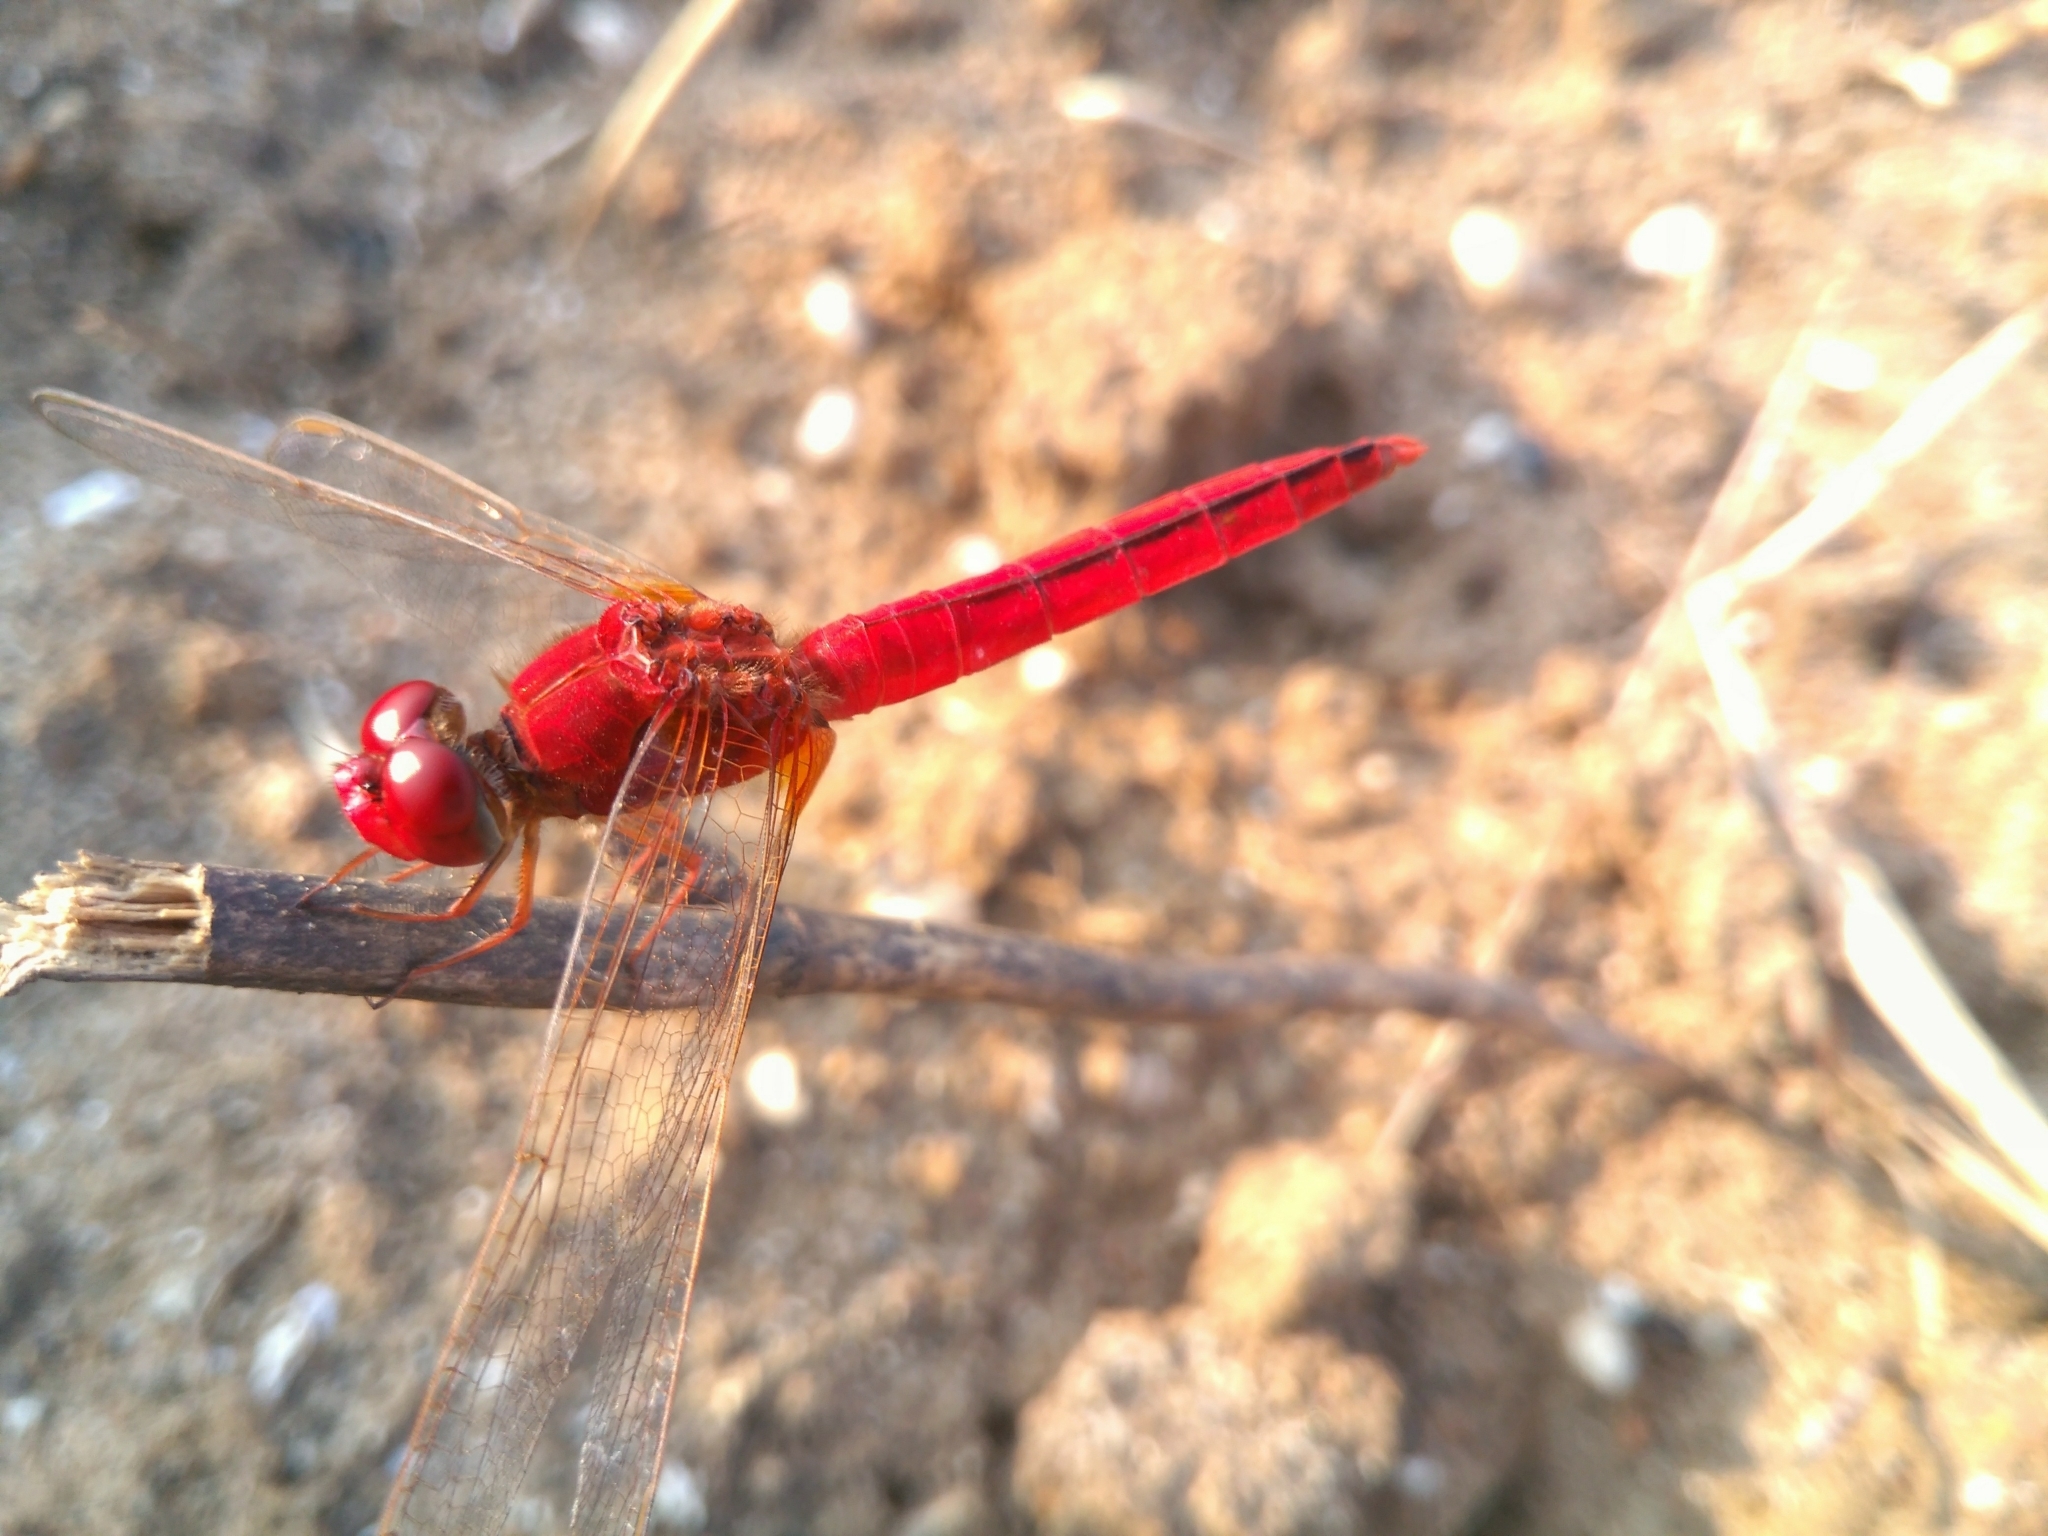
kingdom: Animalia
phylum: Arthropoda
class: Insecta
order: Odonata
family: Libellulidae
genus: Crocothemis
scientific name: Crocothemis servilia
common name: Scarlet skimmer
